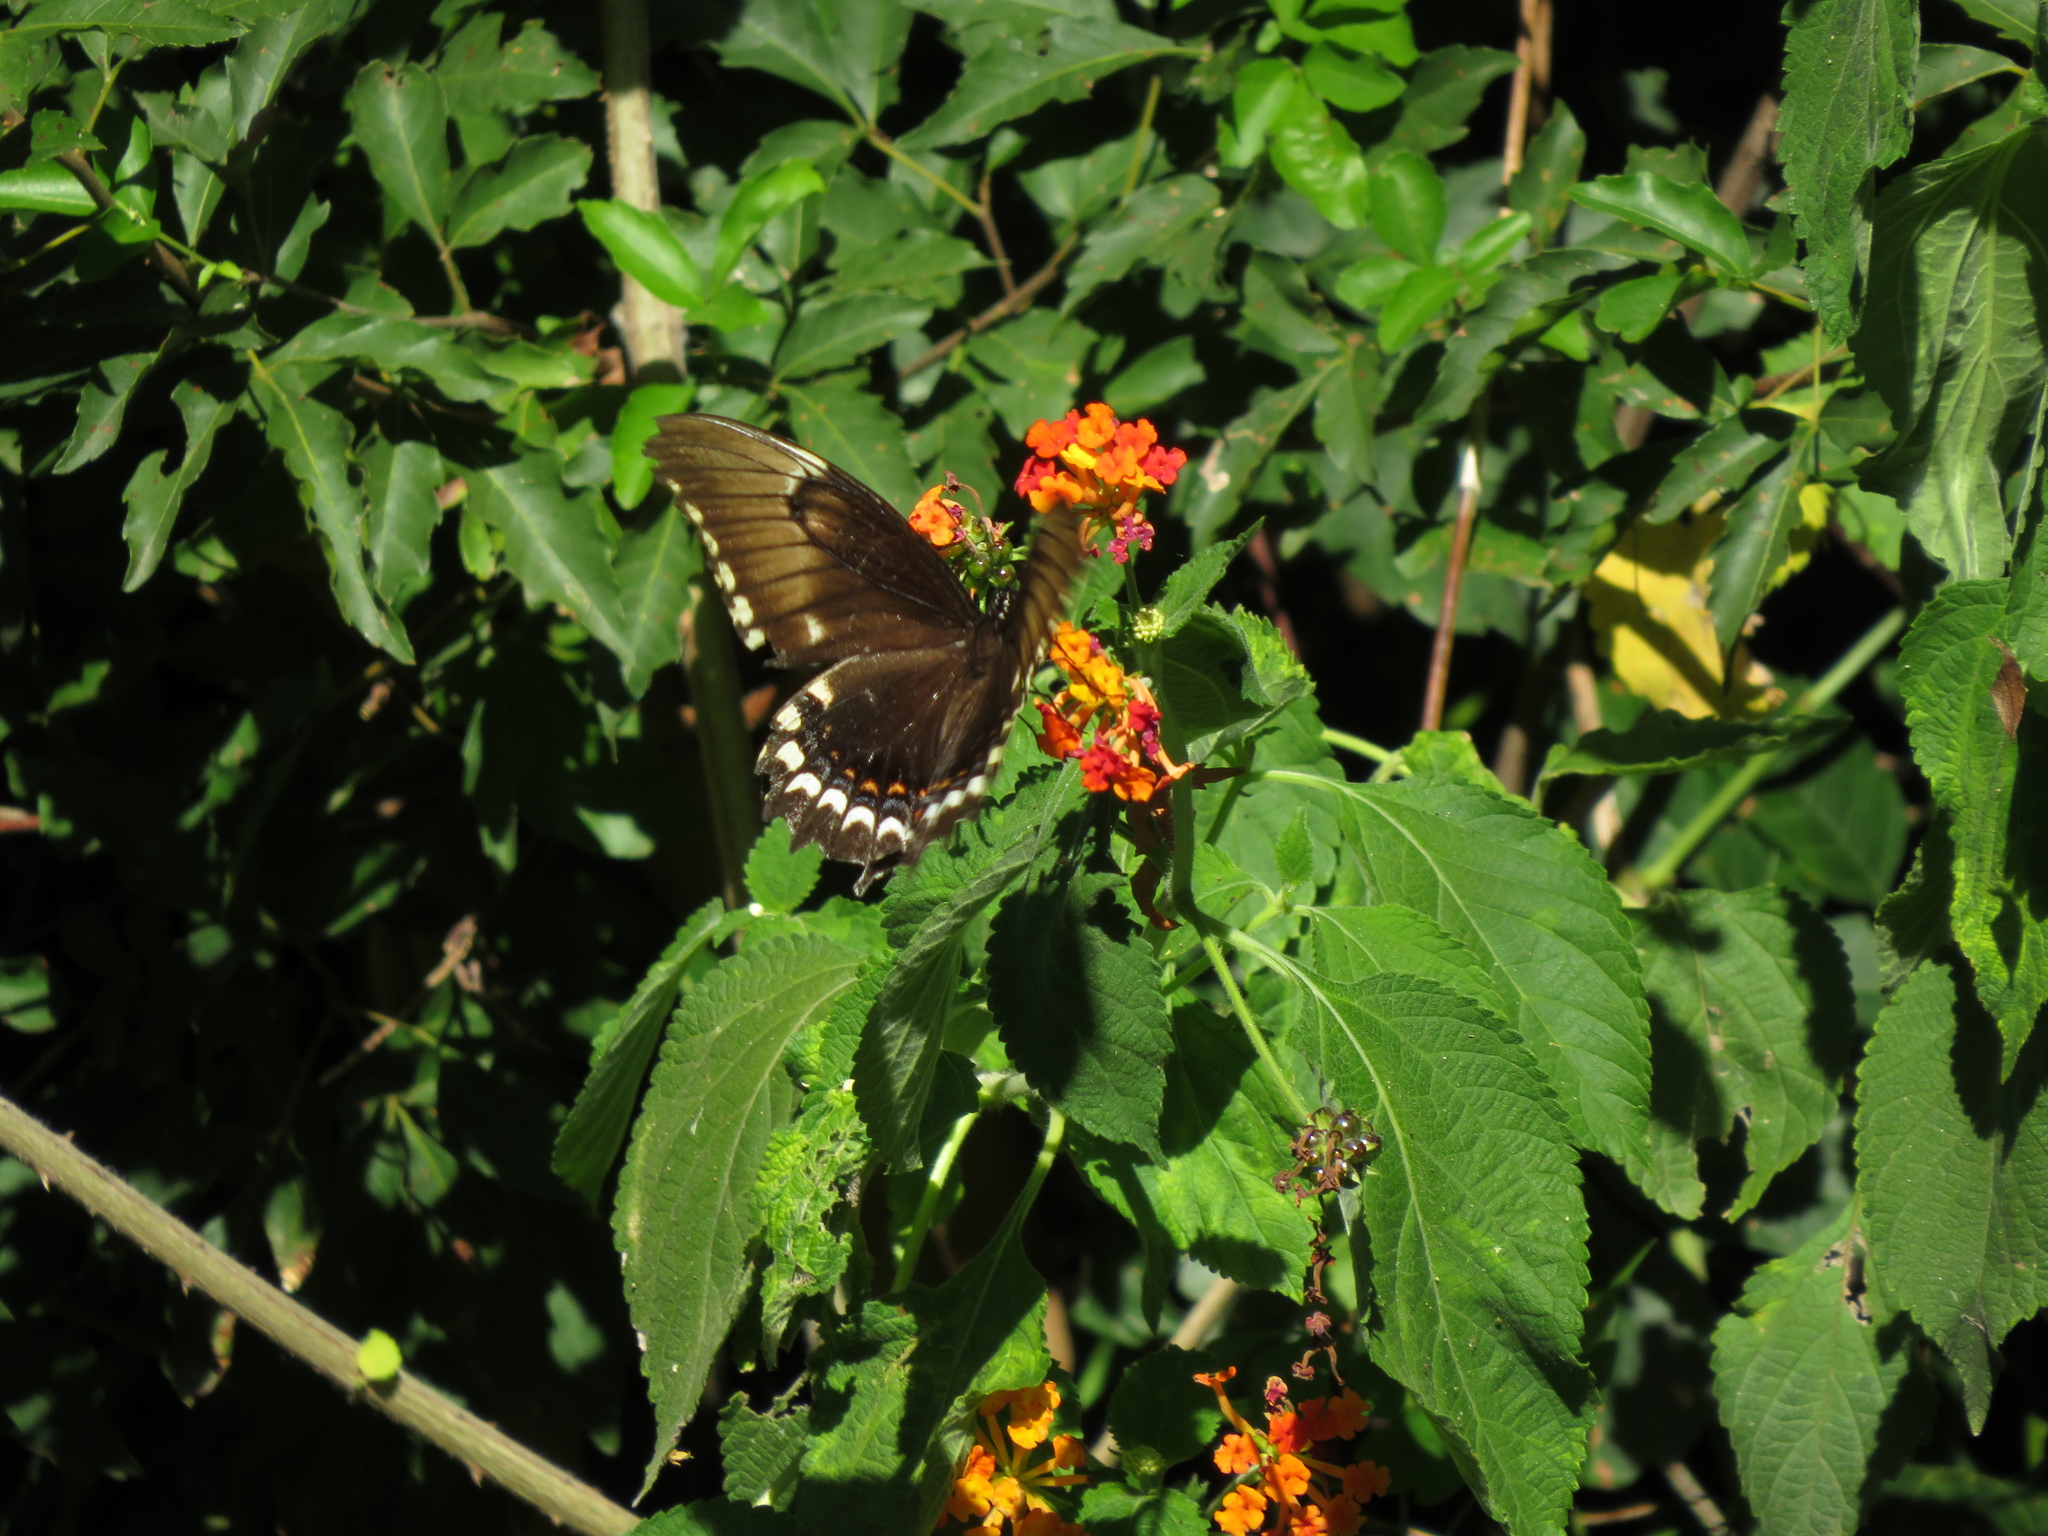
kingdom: Animalia
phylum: Arthropoda
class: Insecta
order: Lepidoptera
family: Papilionidae
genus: Papilio
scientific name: Papilio astyalus
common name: Astyalus swallowtail
